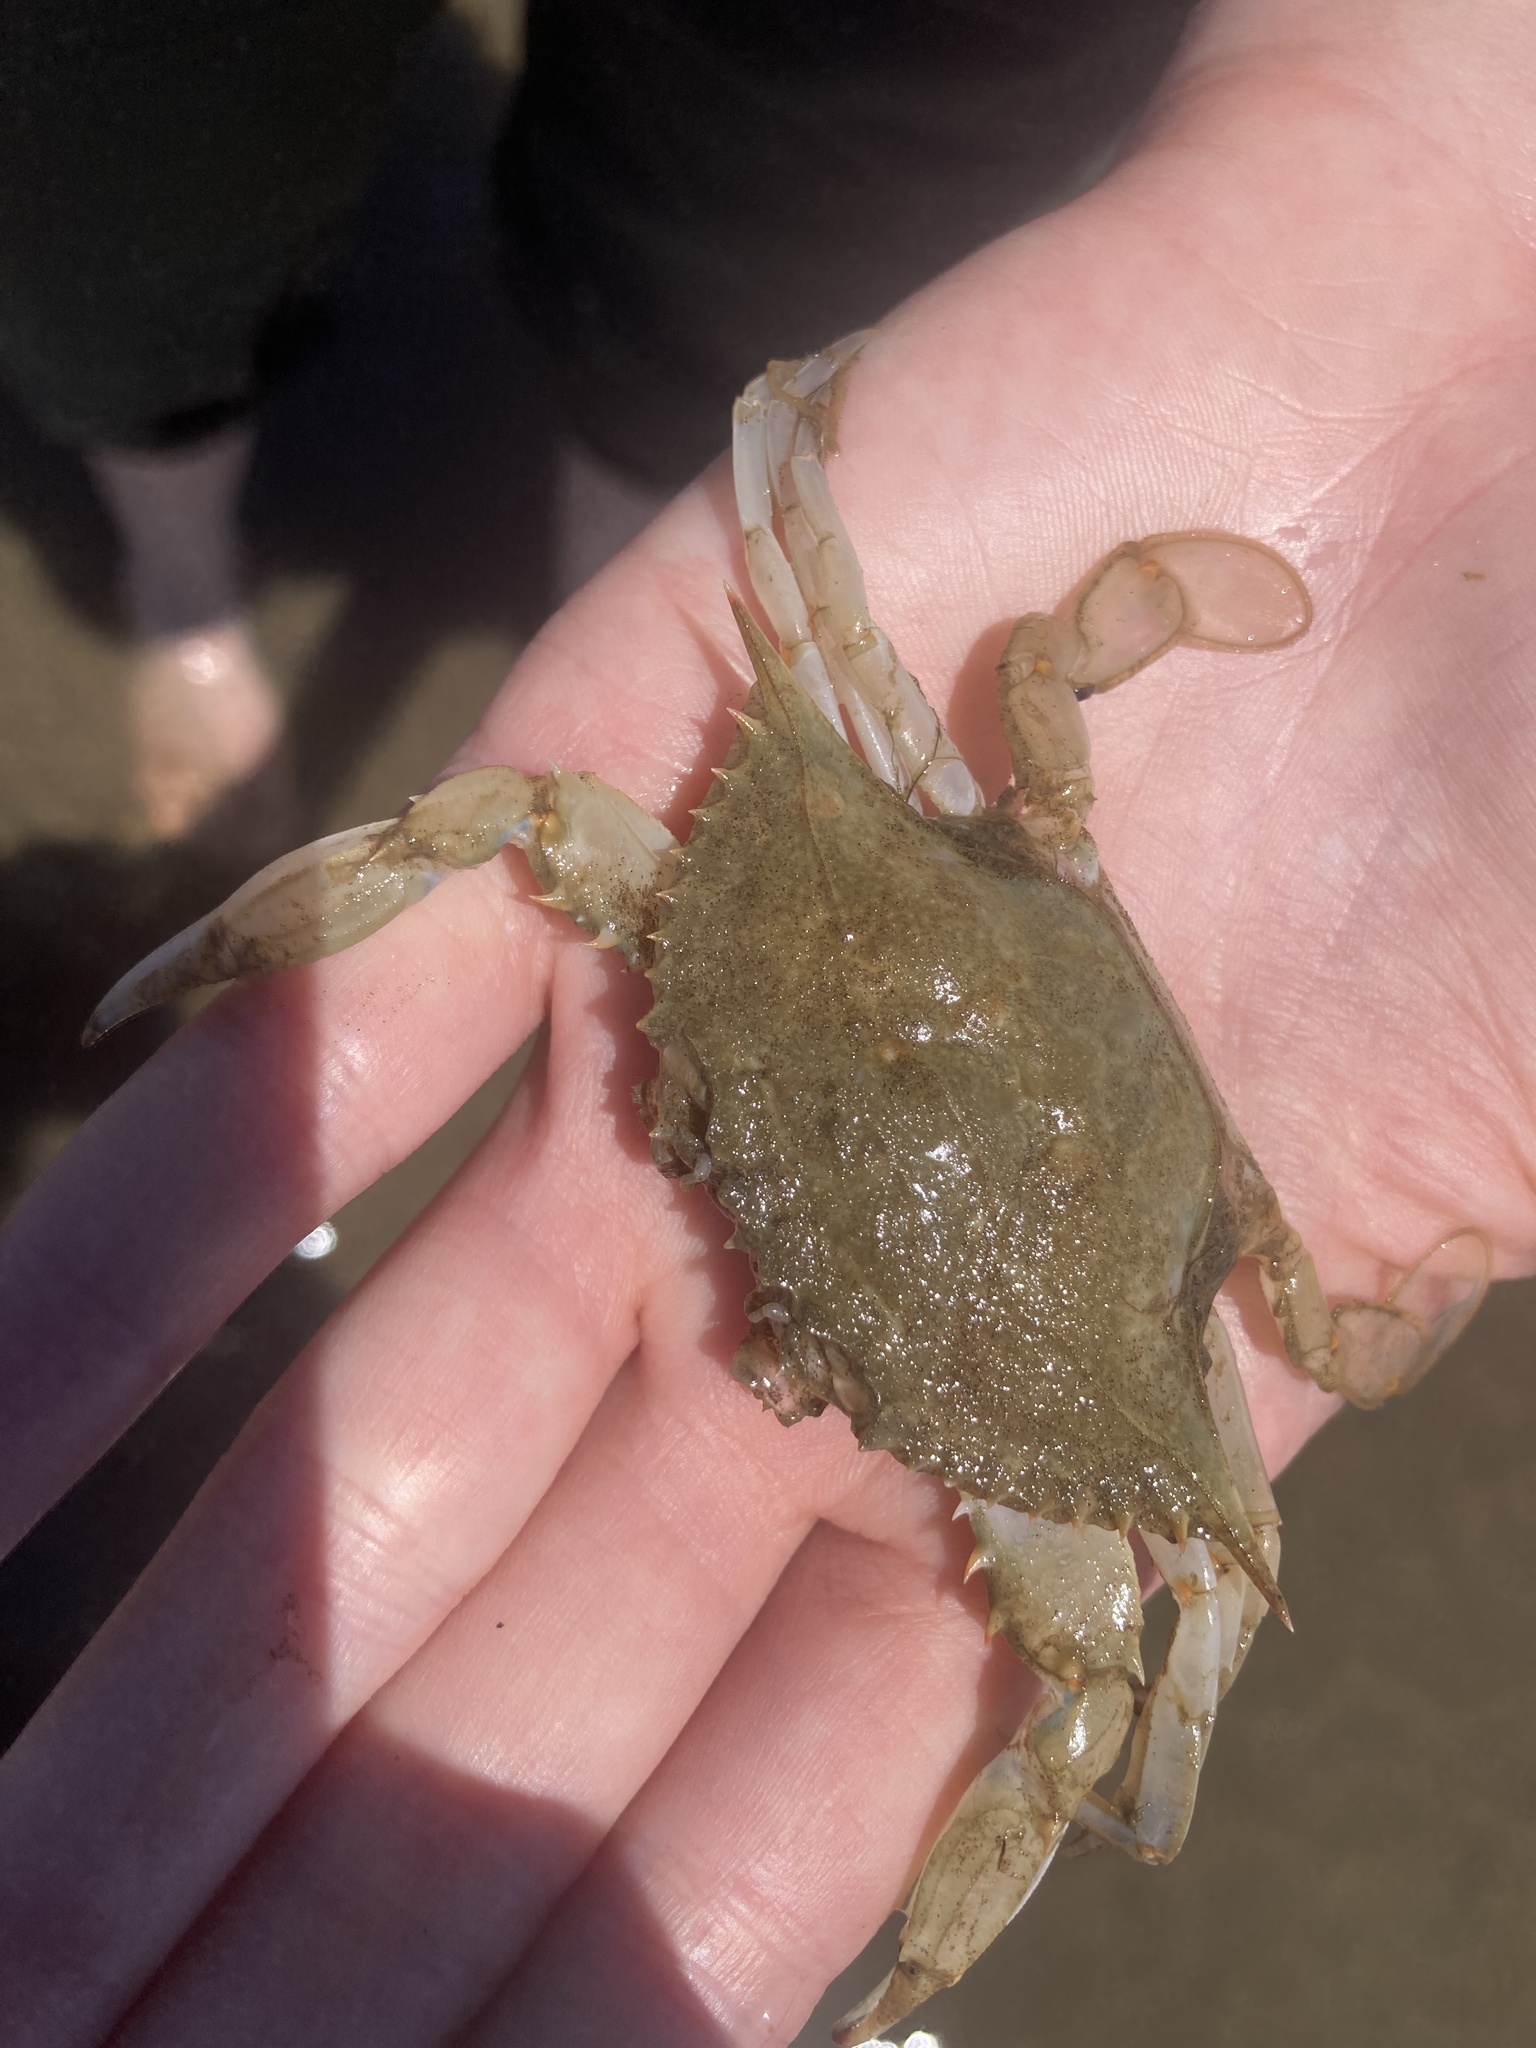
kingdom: Animalia
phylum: Arthropoda
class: Malacostraca
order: Decapoda
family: Portunidae
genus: Callinectes
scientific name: Callinectes sapidus
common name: Blue crab
